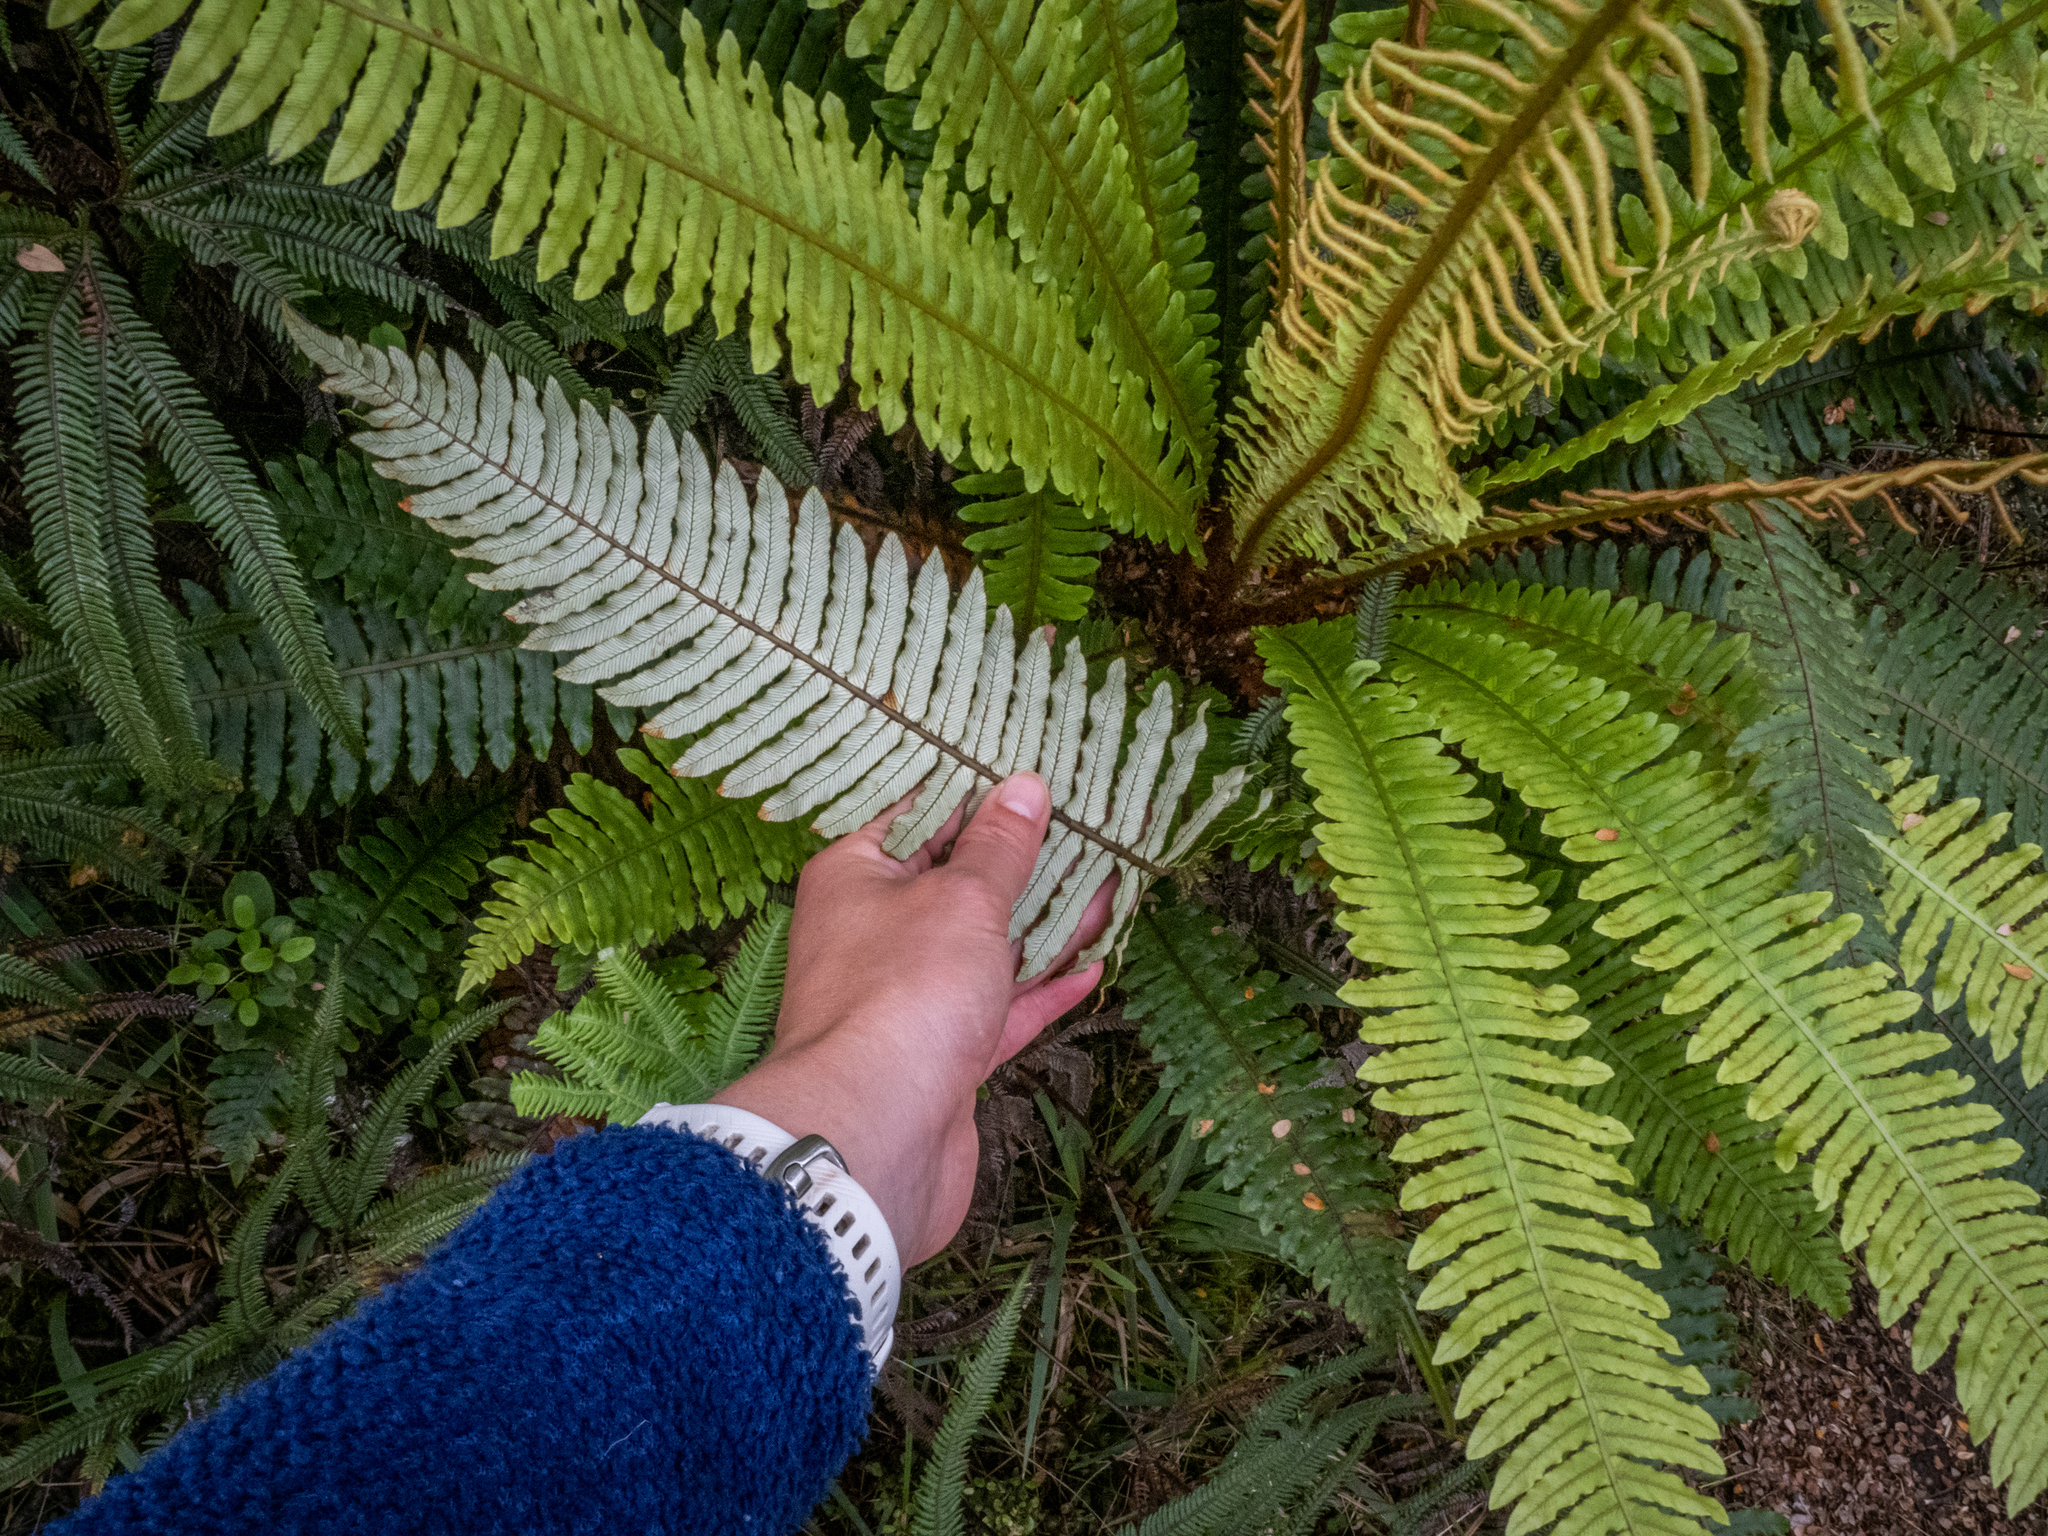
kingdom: Plantae
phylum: Tracheophyta
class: Polypodiopsida
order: Polypodiales
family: Blechnaceae
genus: Lomaria
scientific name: Lomaria discolor
